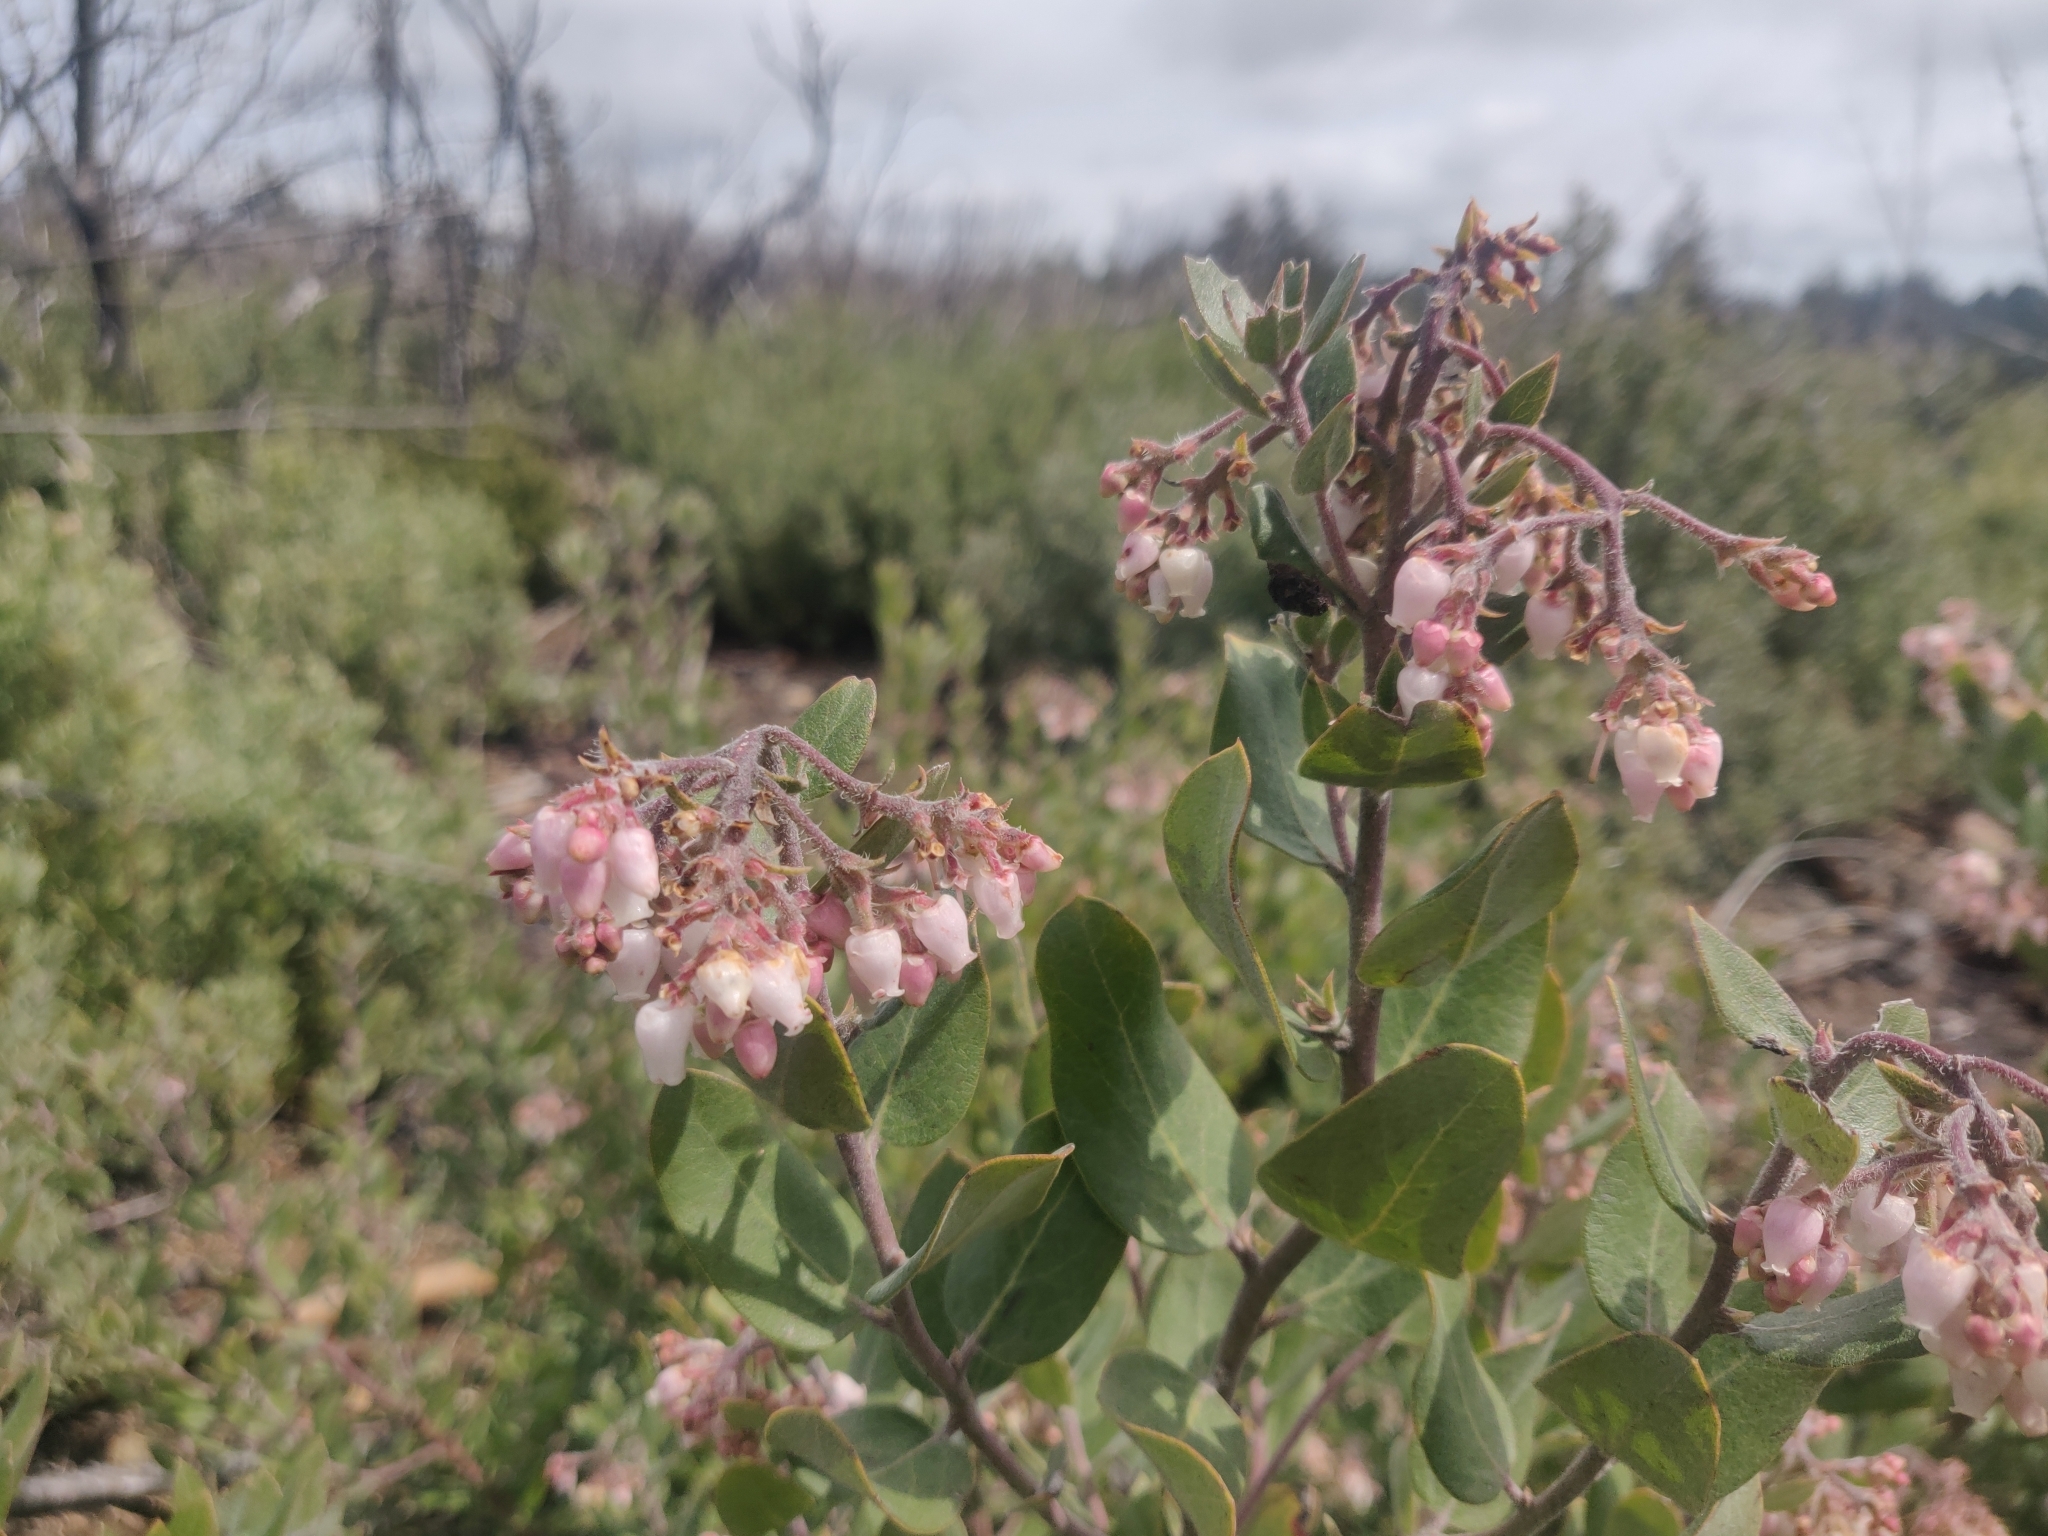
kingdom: Plantae
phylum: Tracheophyta
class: Magnoliopsida
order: Ericales
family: Ericaceae
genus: Arctostaphylos
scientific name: Arctostaphylos crustacea
